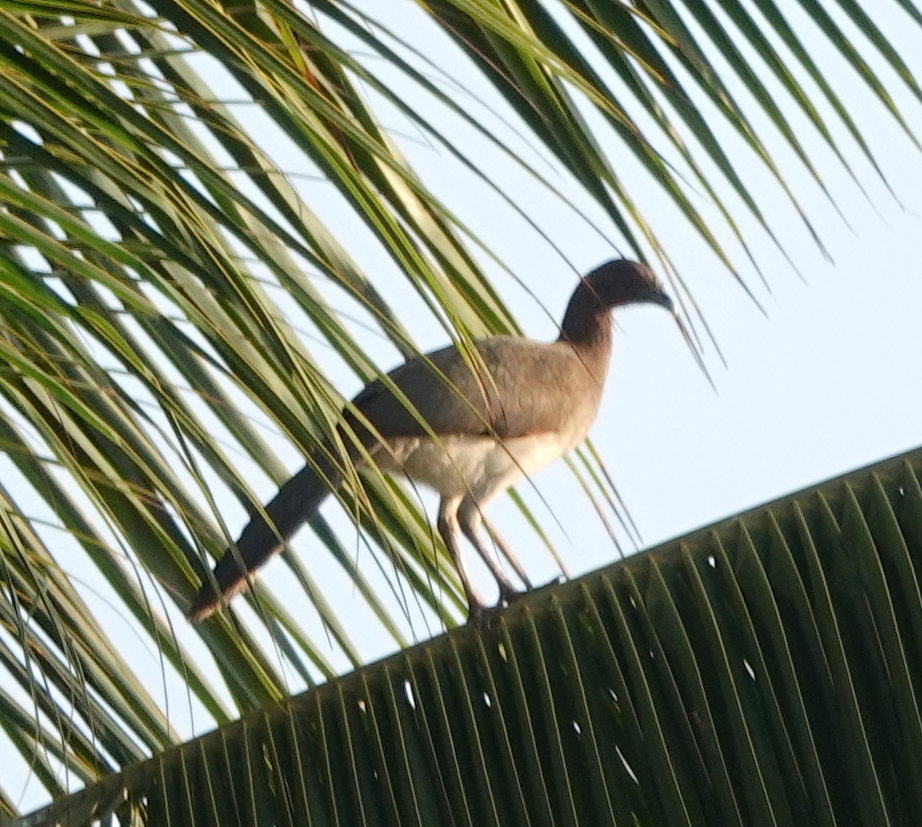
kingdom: Animalia
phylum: Chordata
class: Aves
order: Galliformes
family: Cracidae
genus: Ortalis
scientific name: Ortalis garrula
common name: Chestnut-winged chachalaca
